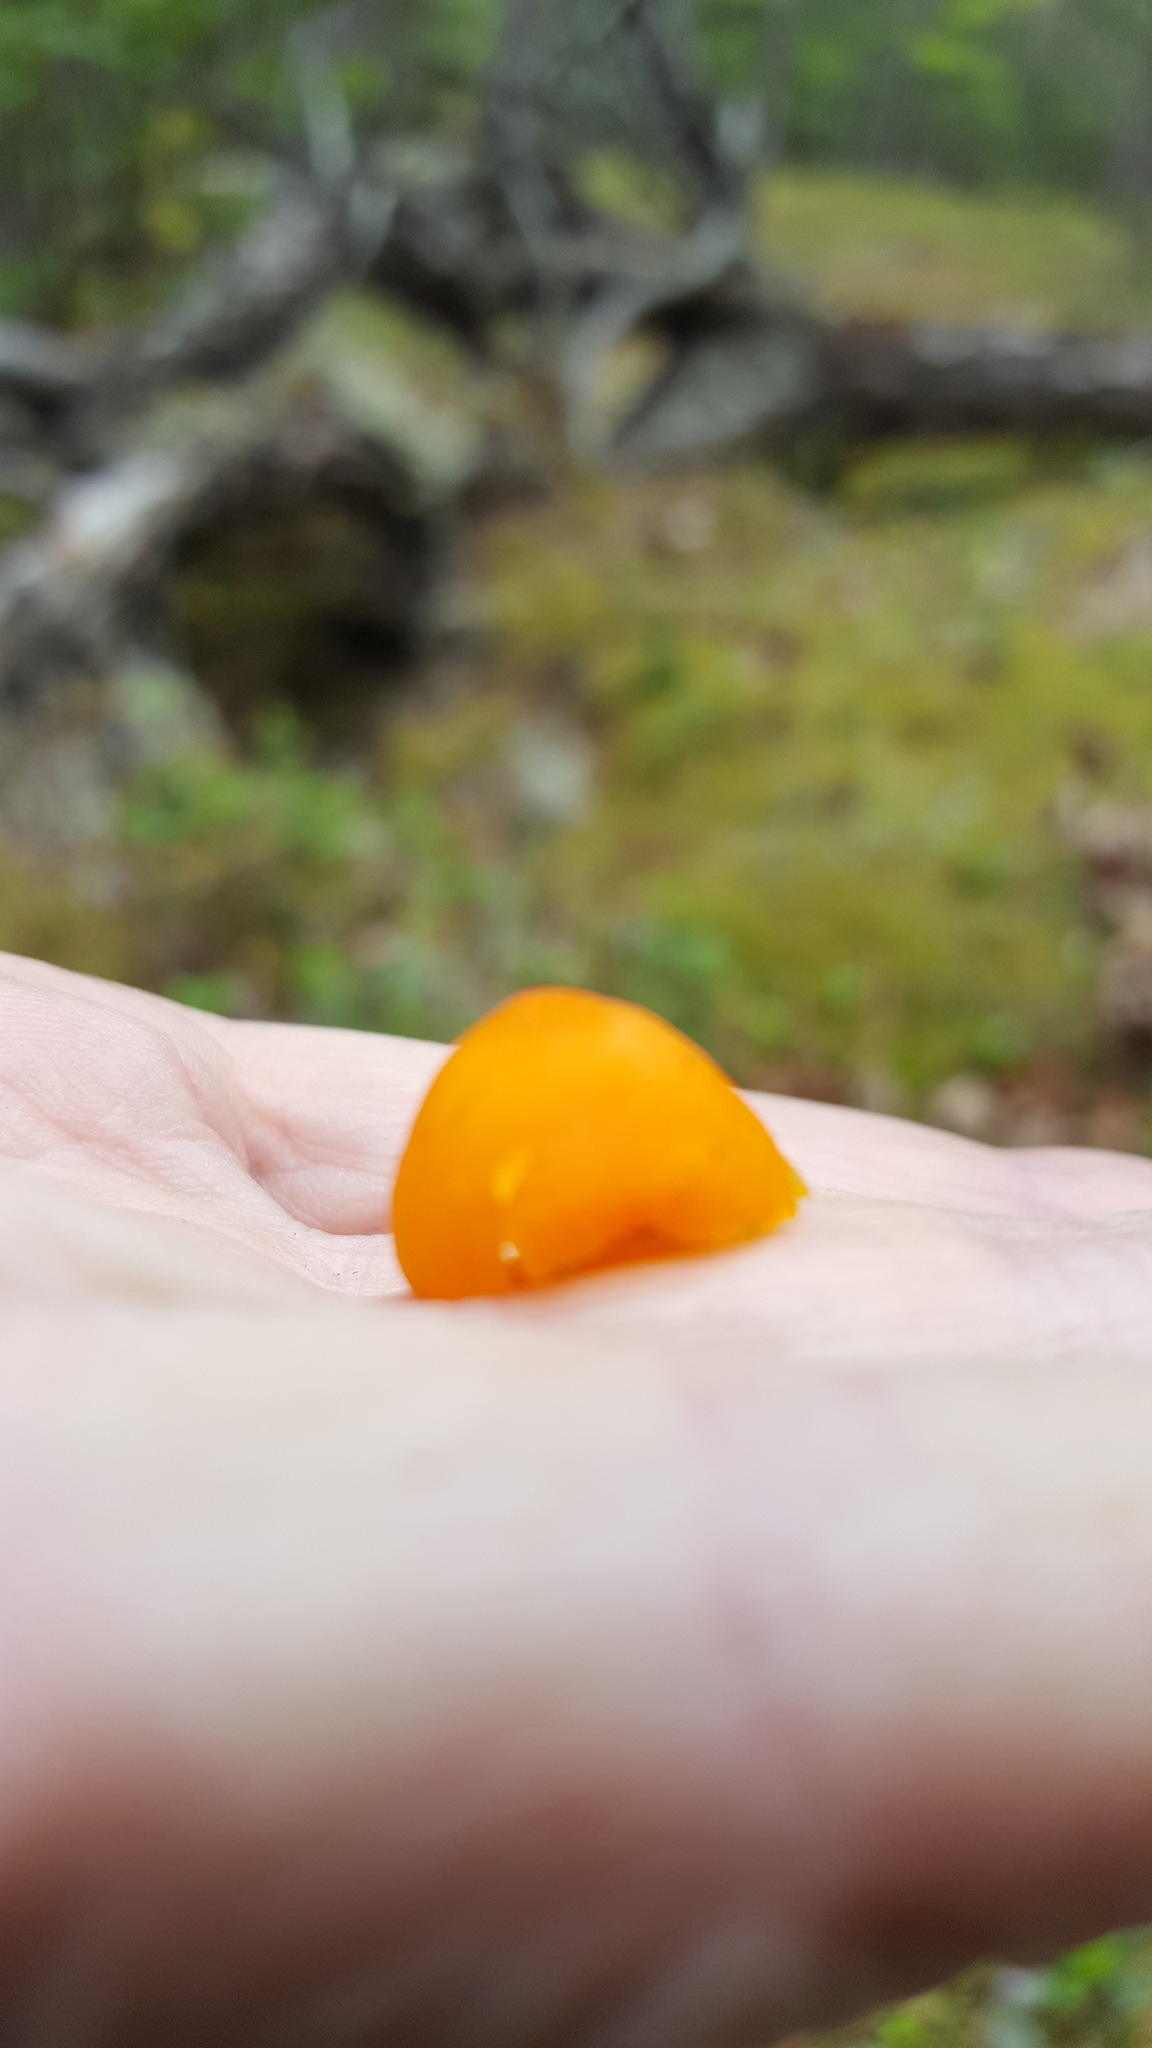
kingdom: Fungi
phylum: Basidiomycota
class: Agaricomycetes
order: Agaricales
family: Hygrophoraceae
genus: Humidicutis
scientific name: Humidicutis marginata
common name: Orange gilled waxcap
